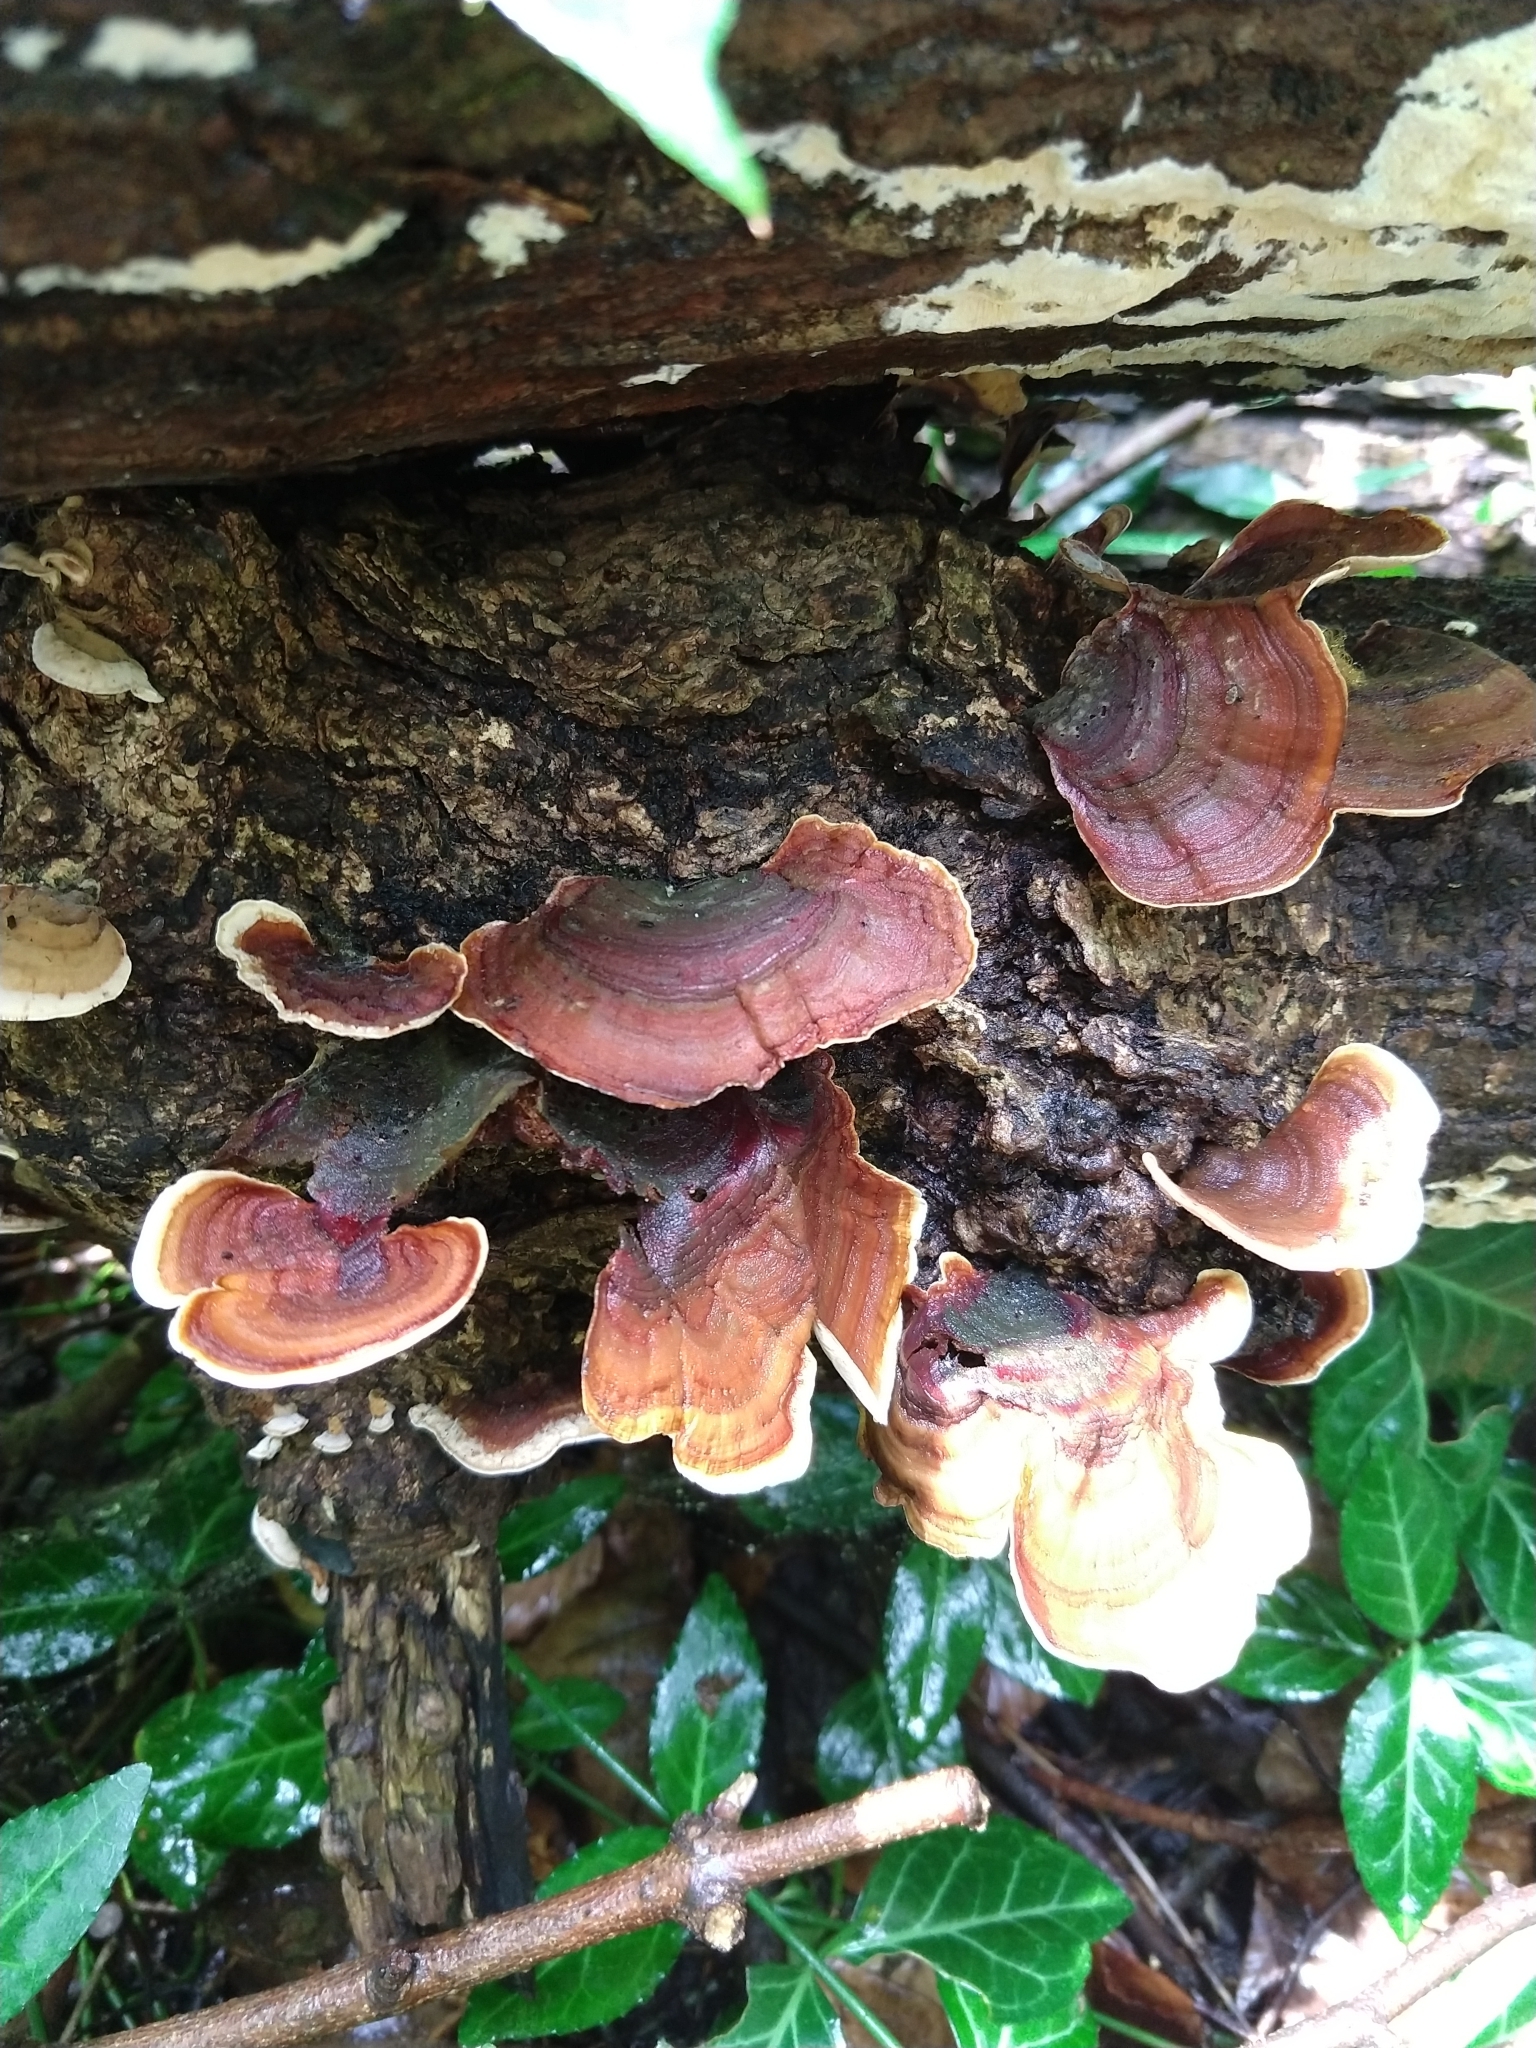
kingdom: Fungi
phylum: Basidiomycota
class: Agaricomycetes
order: Russulales
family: Stereaceae
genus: Stereum
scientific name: Stereum ostrea
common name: False turkeytail
